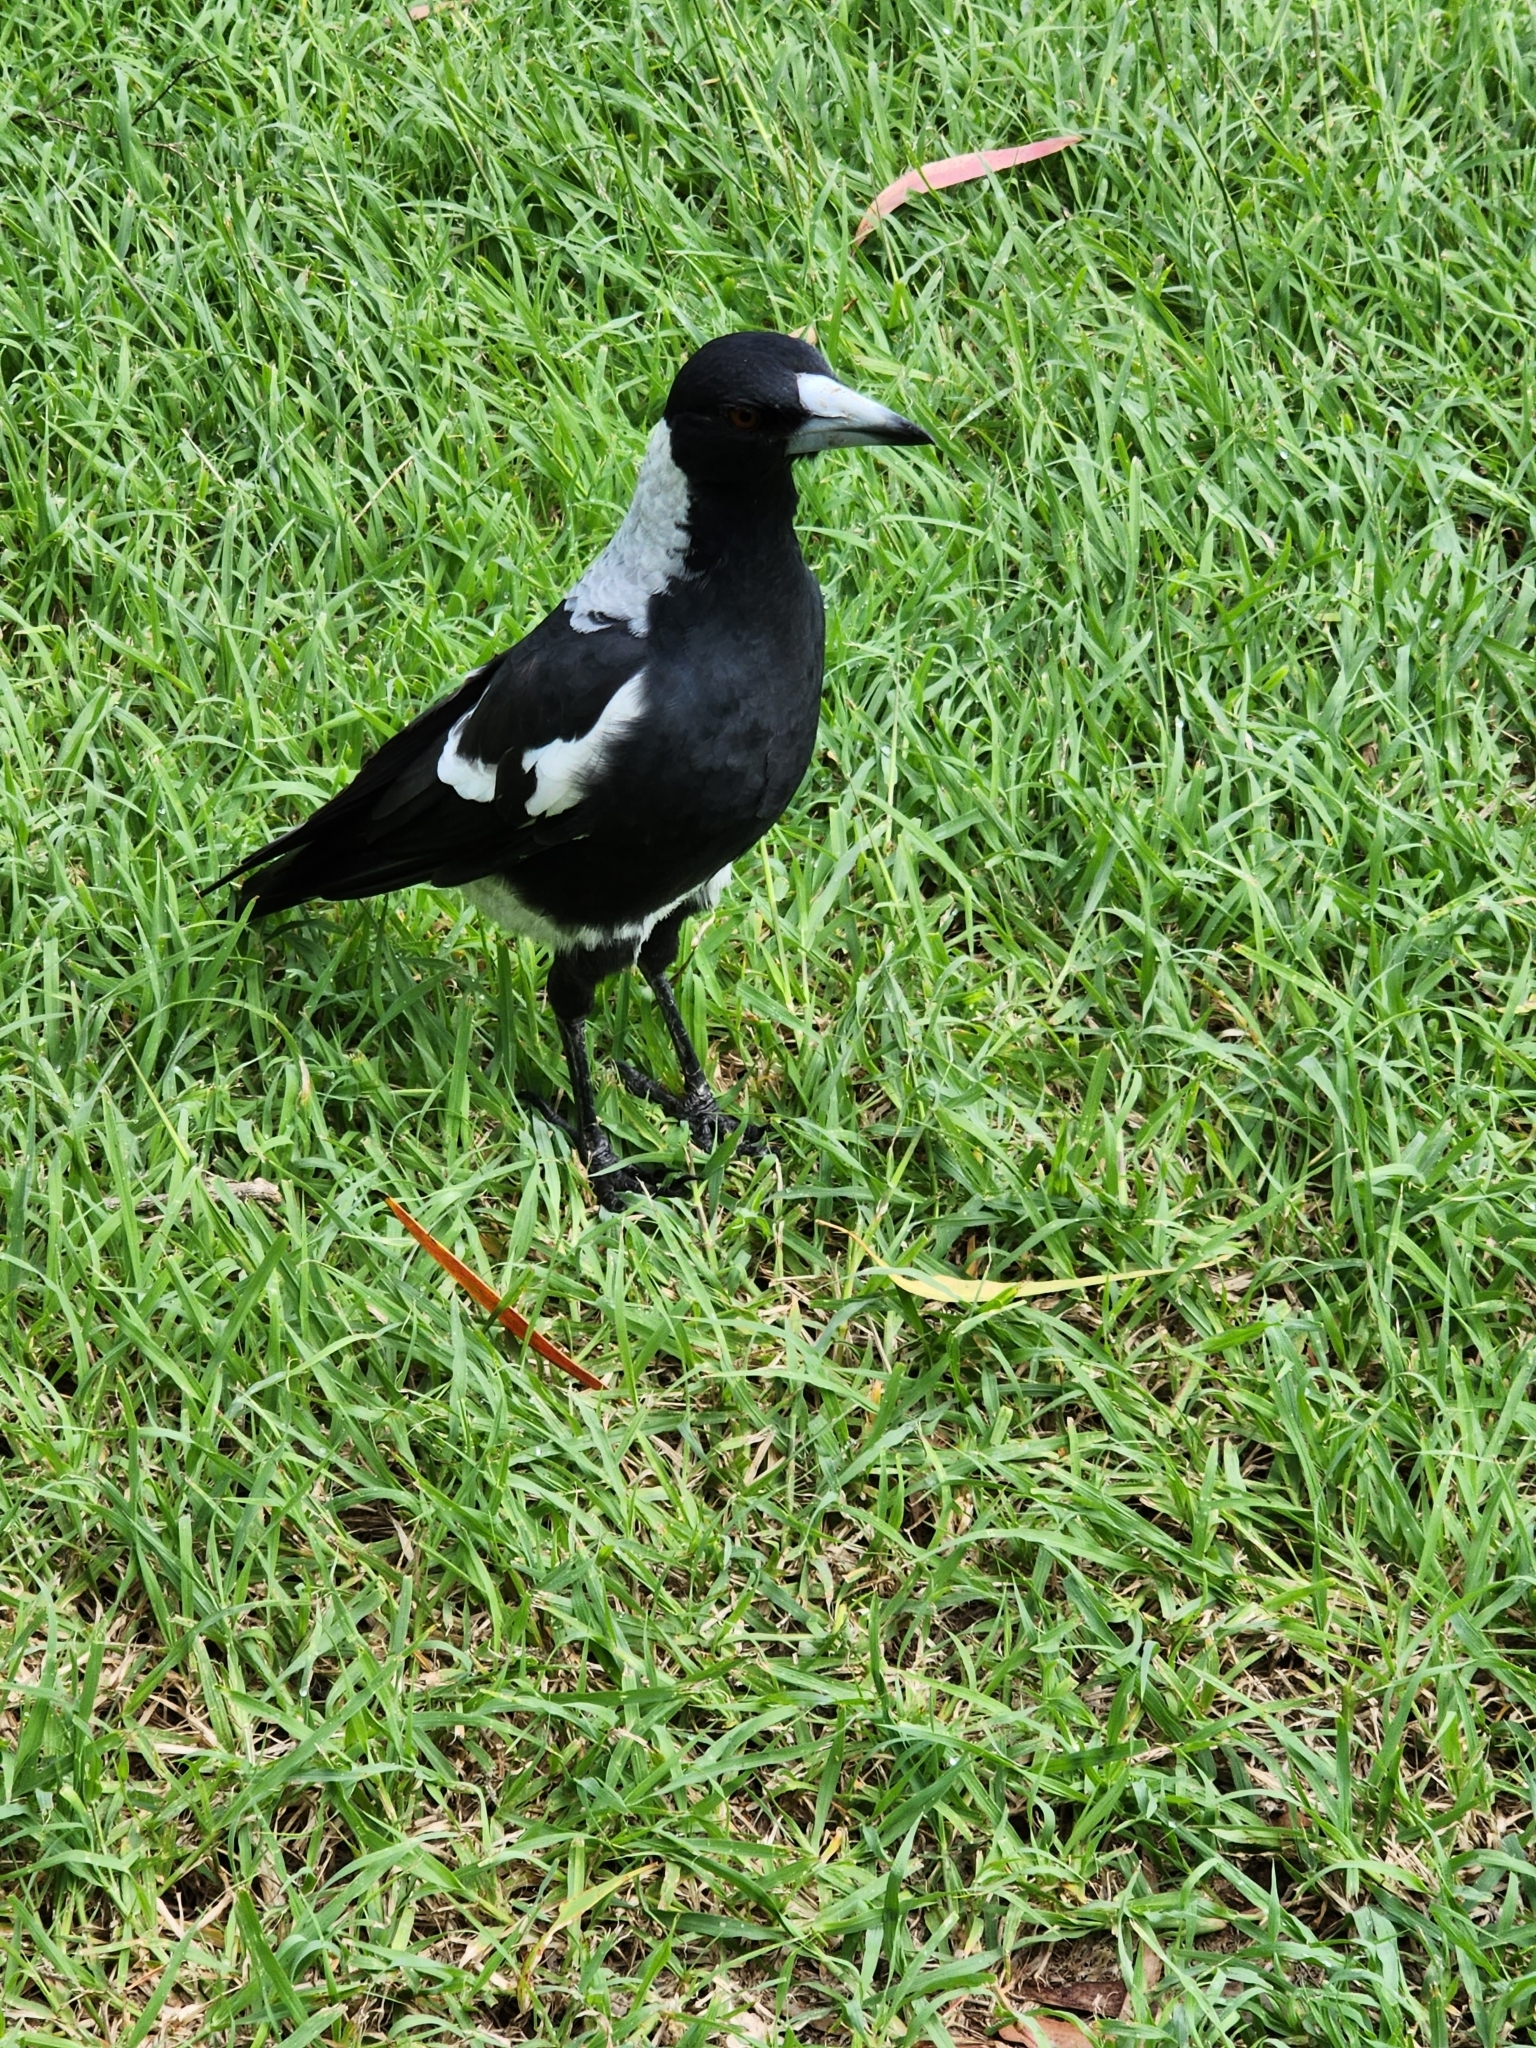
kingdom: Animalia
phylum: Chordata
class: Aves
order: Passeriformes
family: Cracticidae
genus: Gymnorhina
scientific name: Gymnorhina tibicen
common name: Australian magpie
